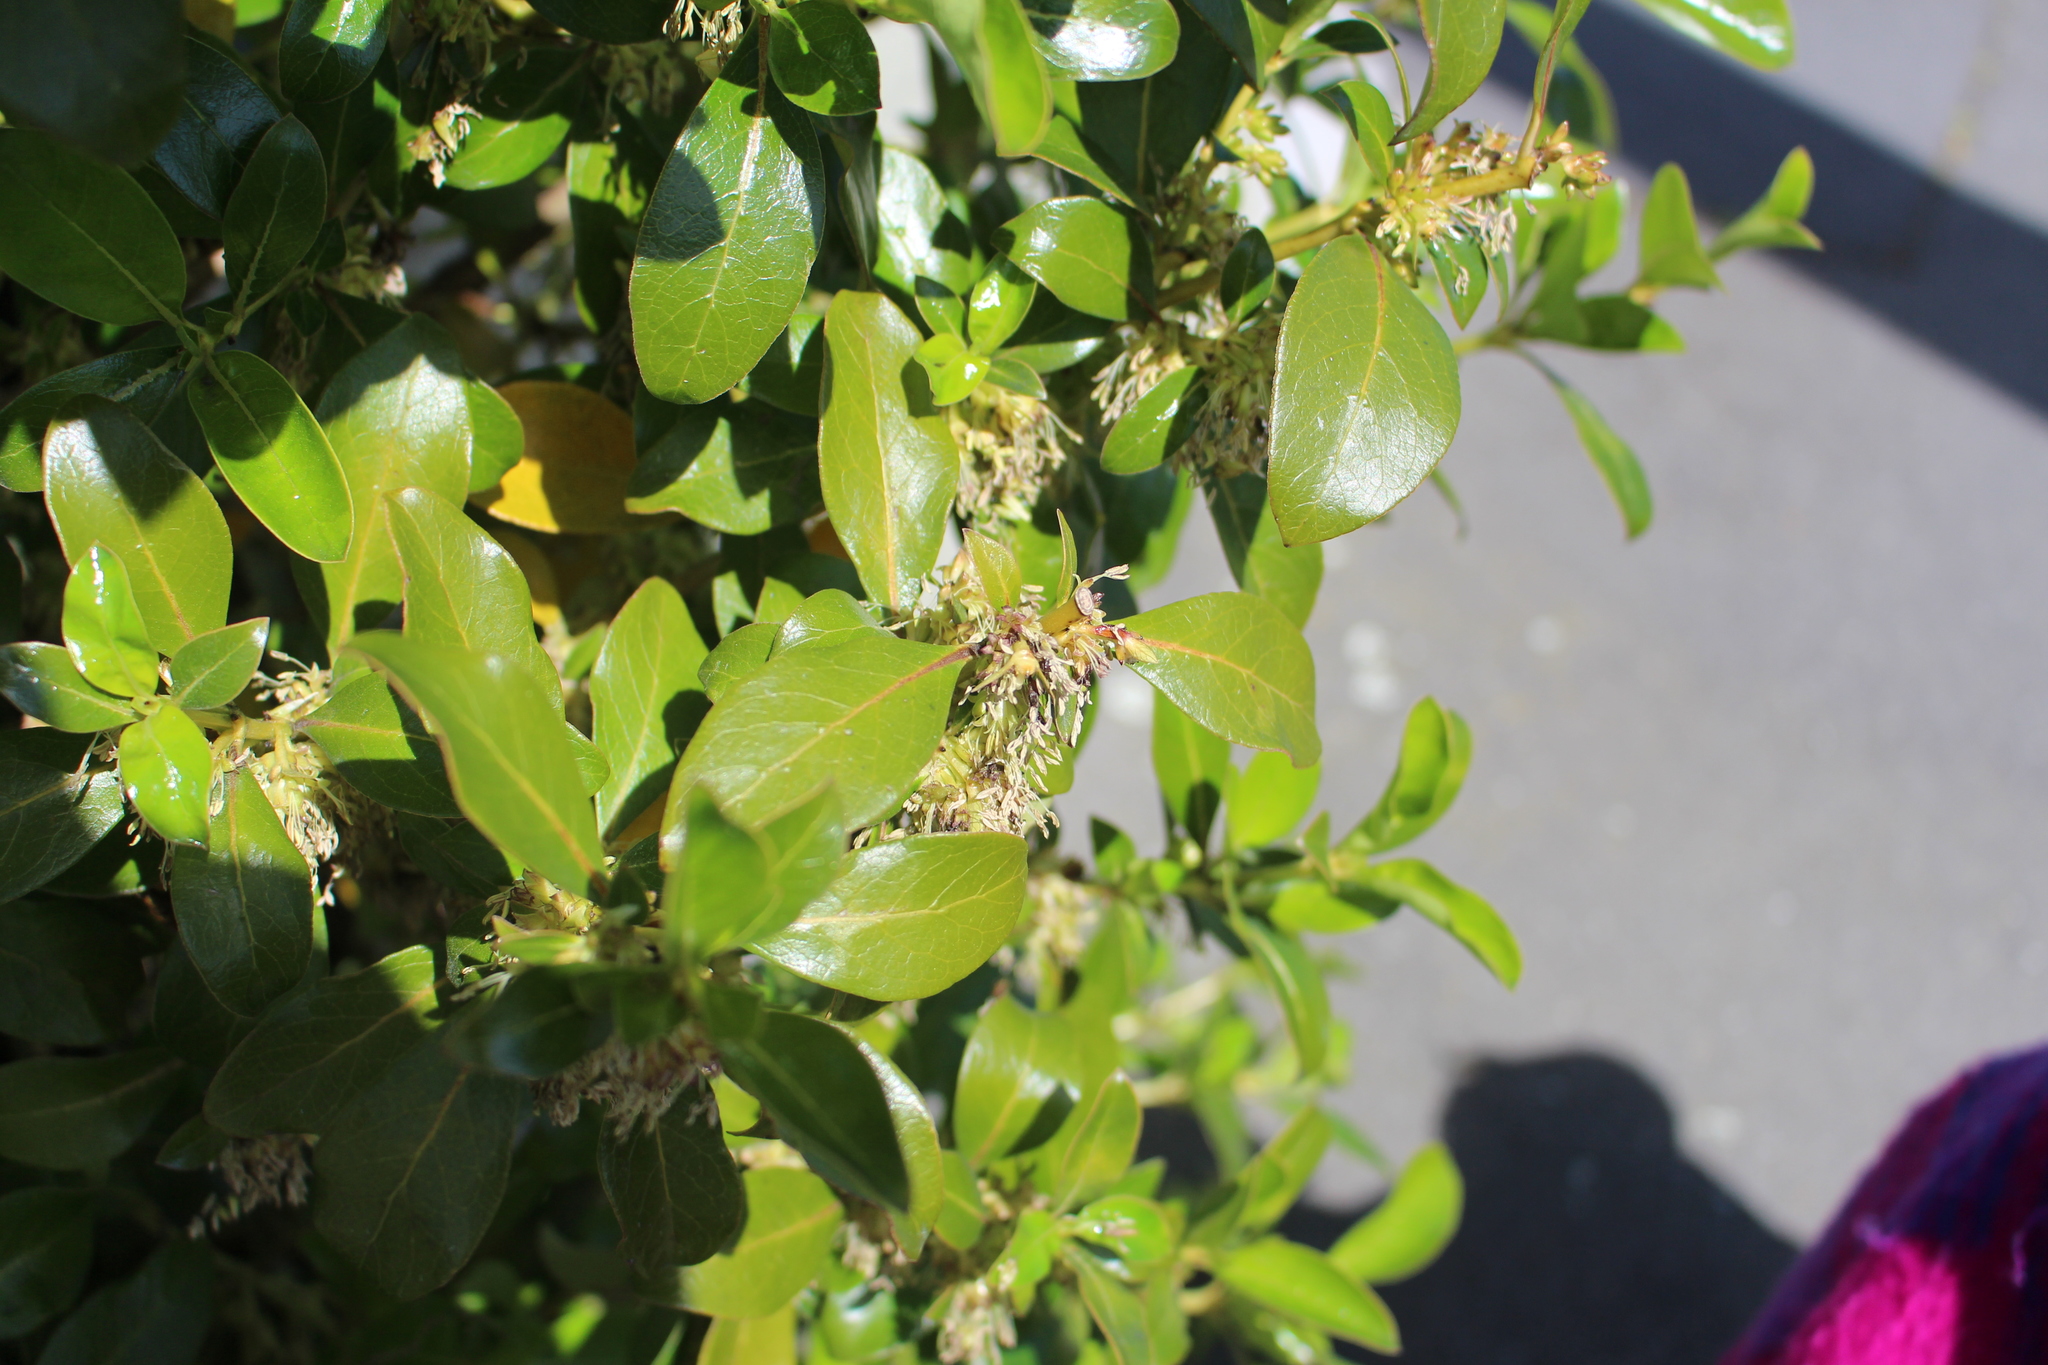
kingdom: Plantae
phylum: Tracheophyta
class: Magnoliopsida
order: Gentianales
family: Rubiaceae
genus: Coprosma
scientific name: Coprosma robusta
